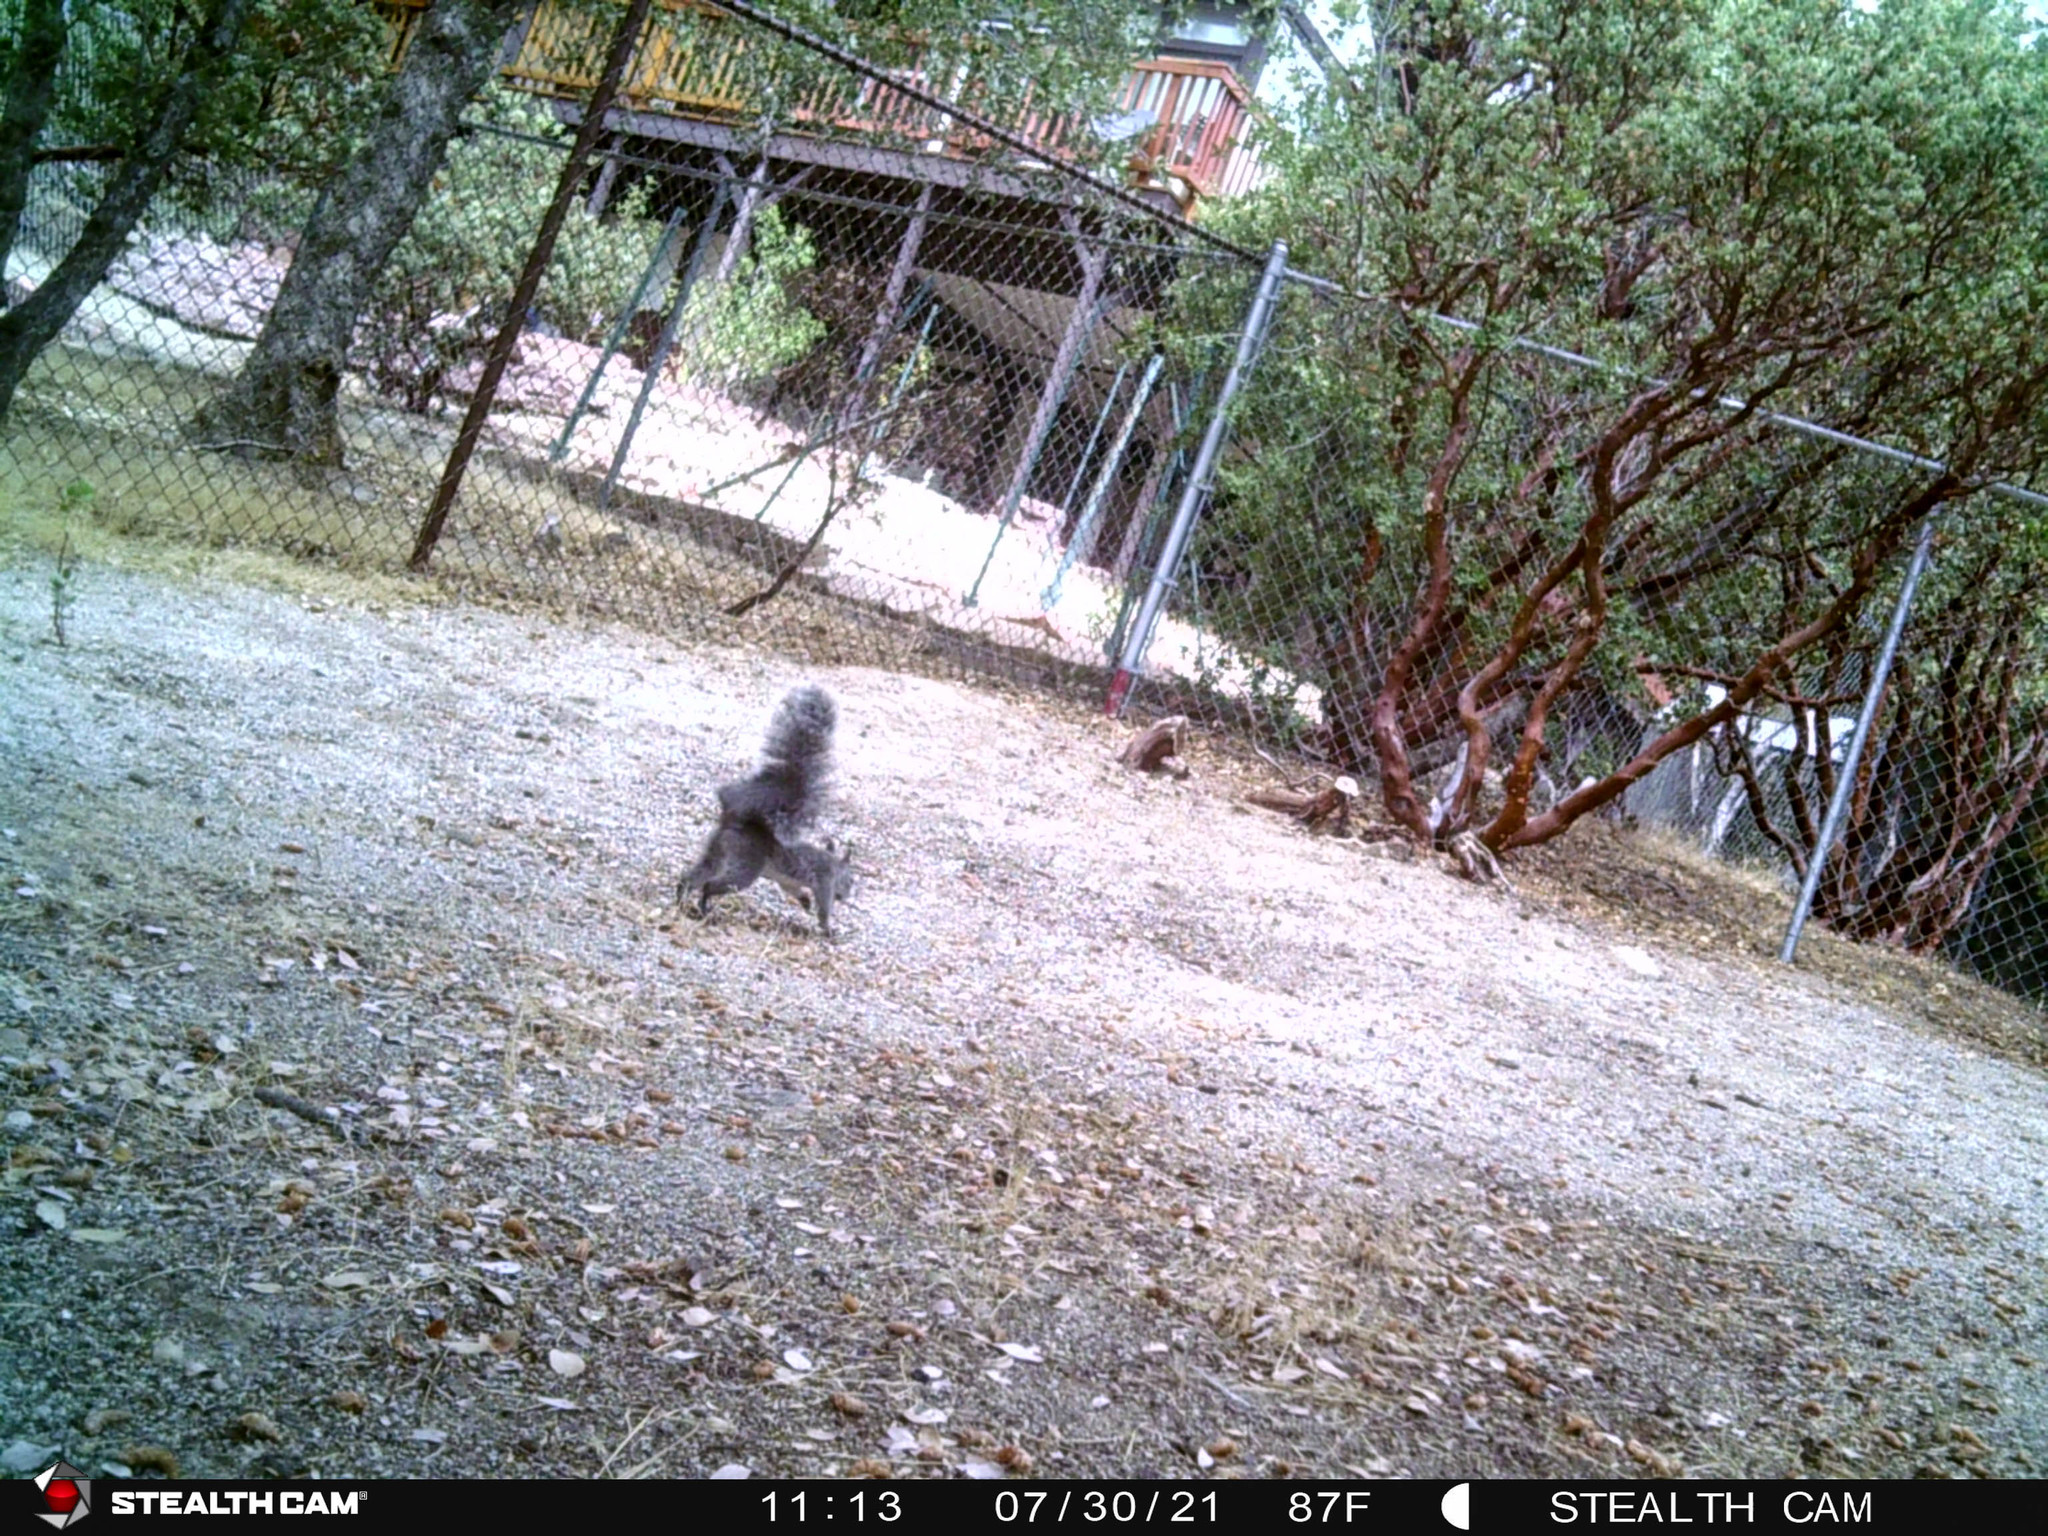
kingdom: Animalia
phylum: Chordata
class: Mammalia
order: Rodentia
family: Sciuridae
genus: Sciurus
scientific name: Sciurus griseus
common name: Western gray squirrel
